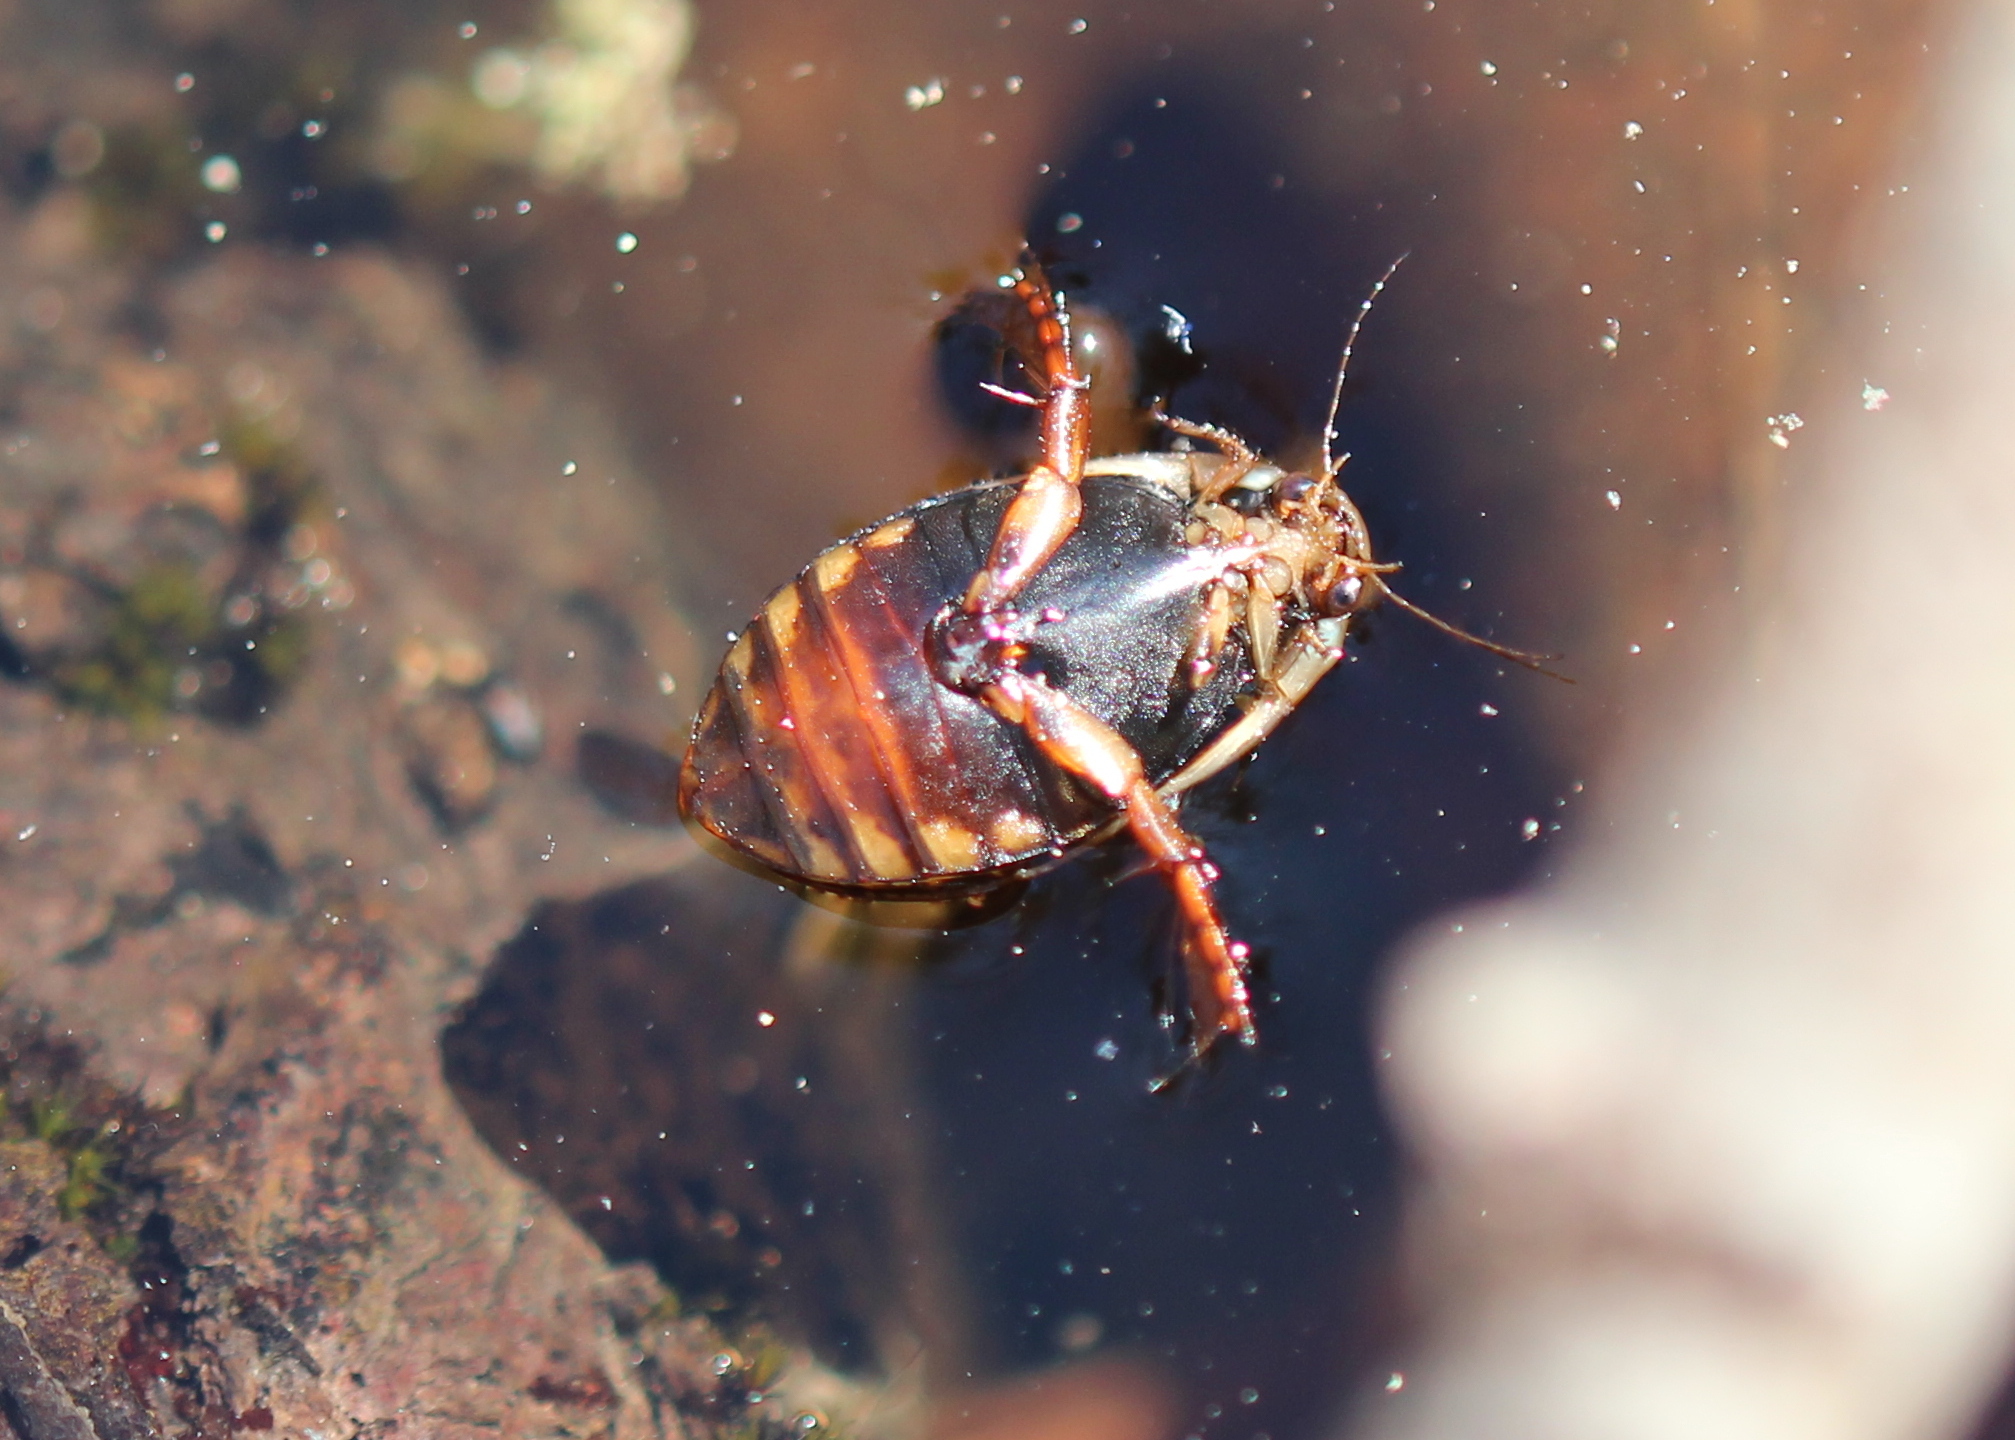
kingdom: Animalia
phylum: Arthropoda
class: Insecta
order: Coleoptera
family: Dytiscidae
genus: Acilius
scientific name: Acilius semisulcatus
